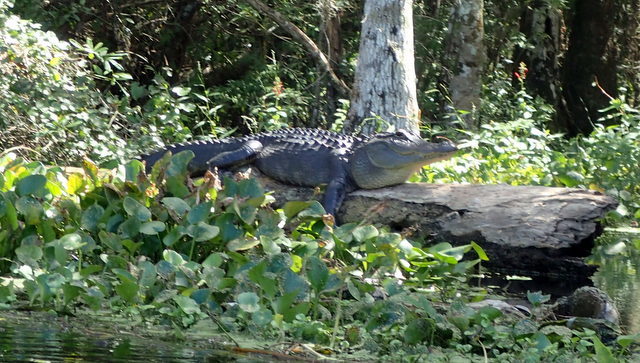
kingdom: Animalia
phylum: Chordata
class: Crocodylia
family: Alligatoridae
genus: Alligator
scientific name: Alligator mississippiensis
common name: American alligator
